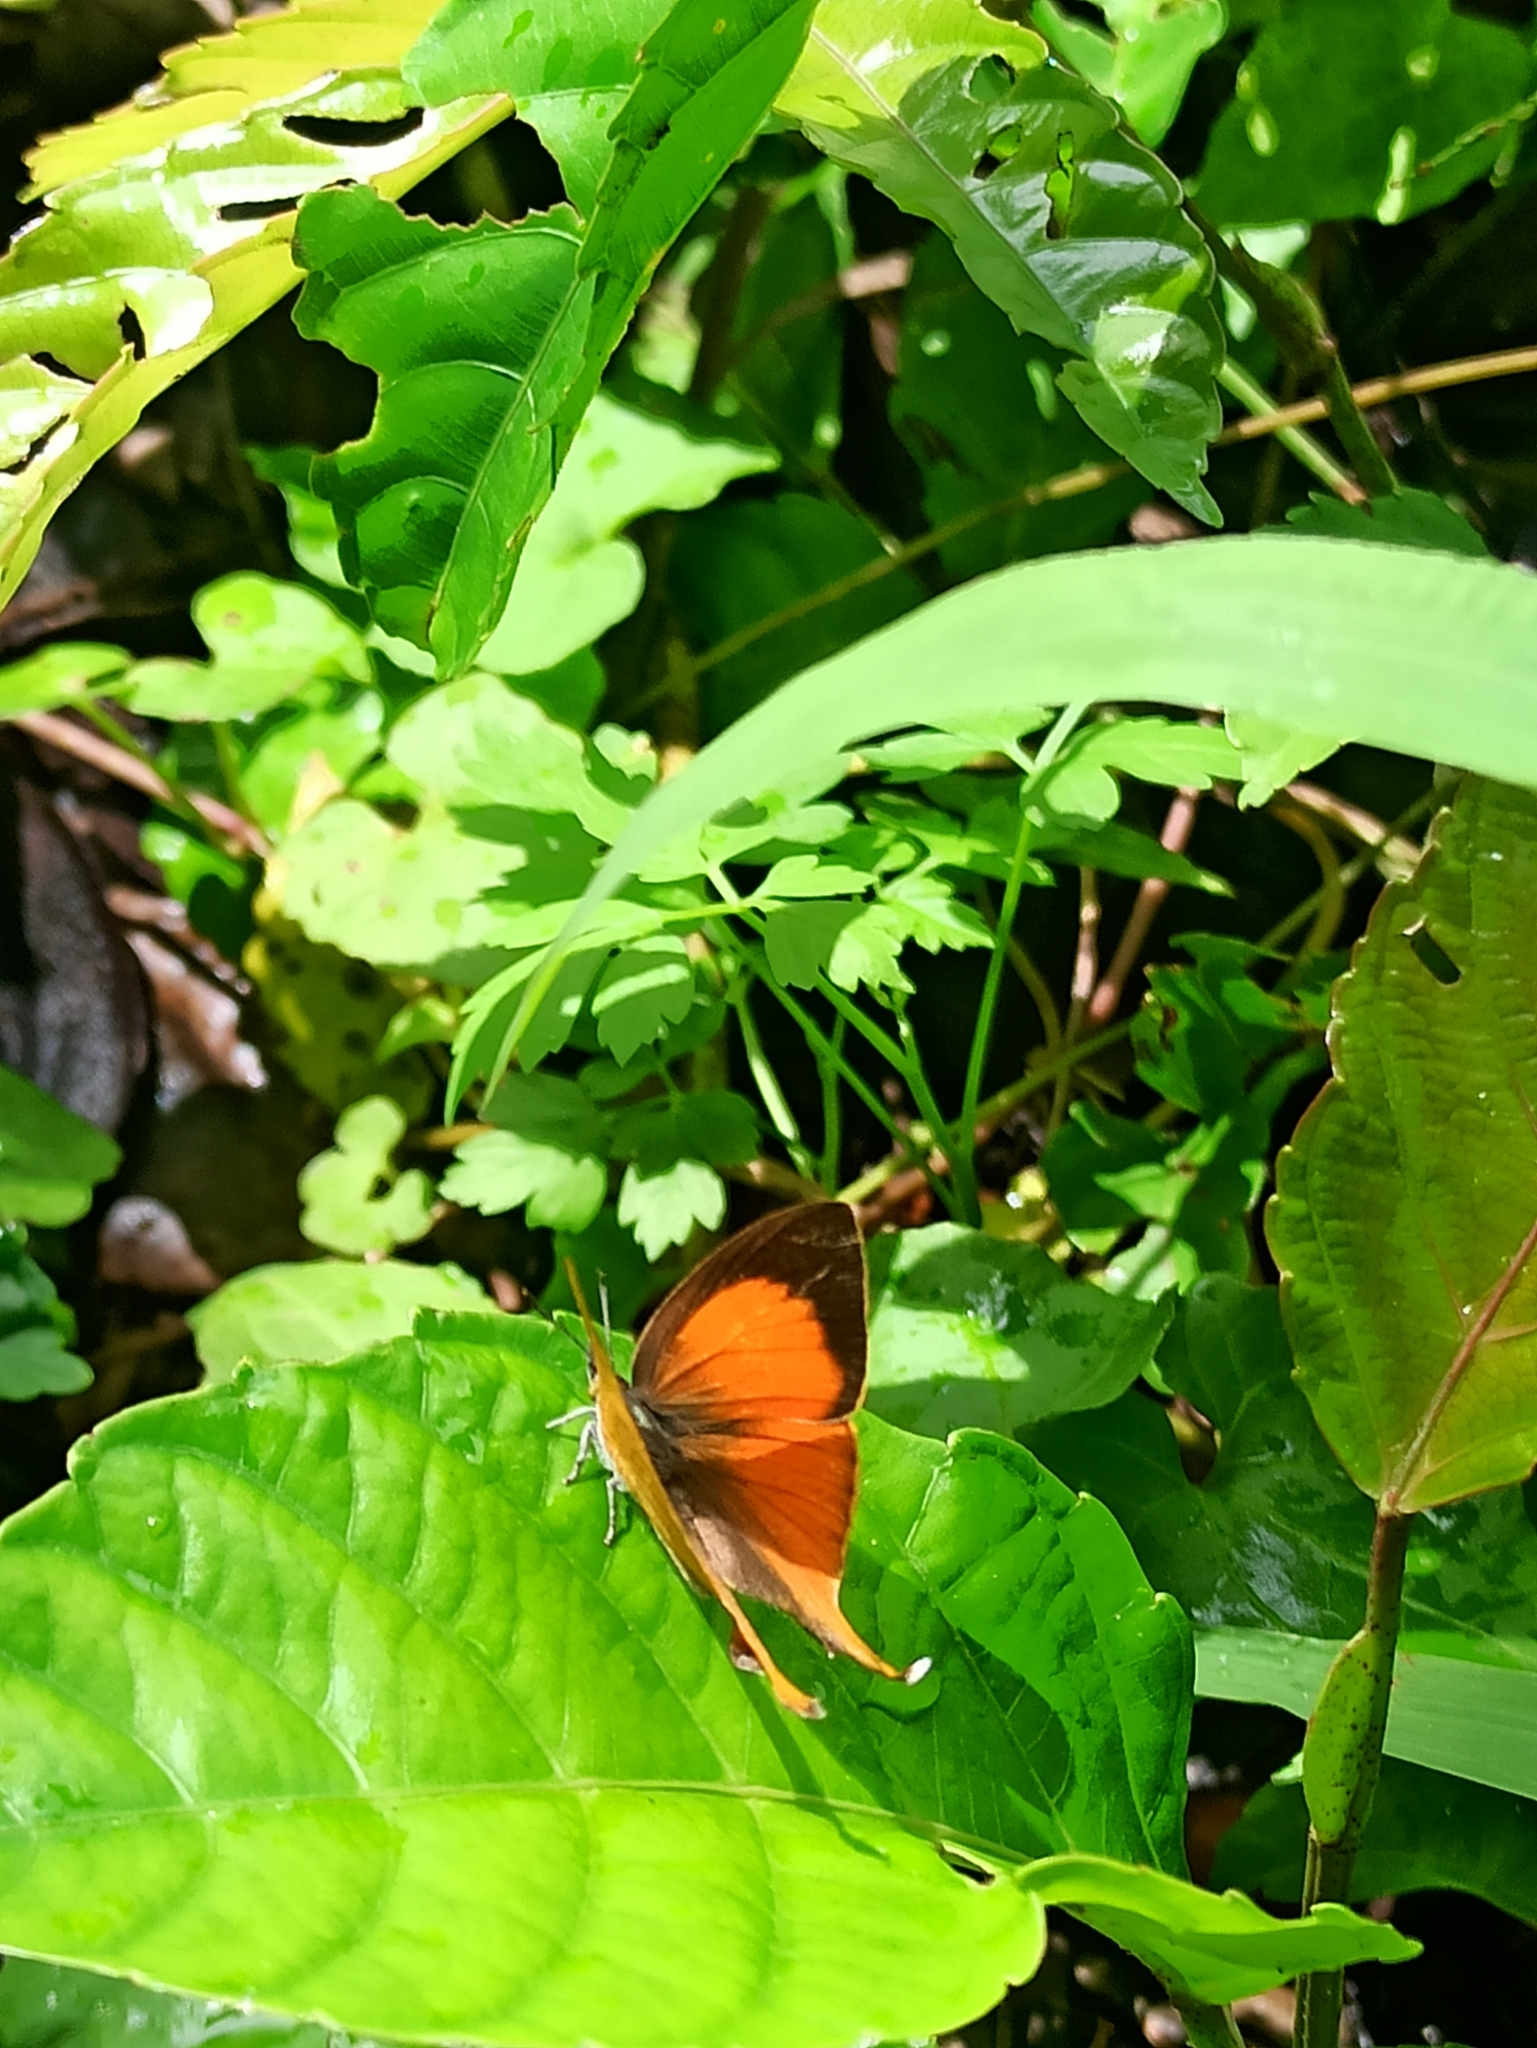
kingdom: Animalia
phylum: Arthropoda
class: Insecta
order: Lepidoptera
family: Lycaenidae
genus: Loxura
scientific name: Loxura atymnus
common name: Common yamfly
